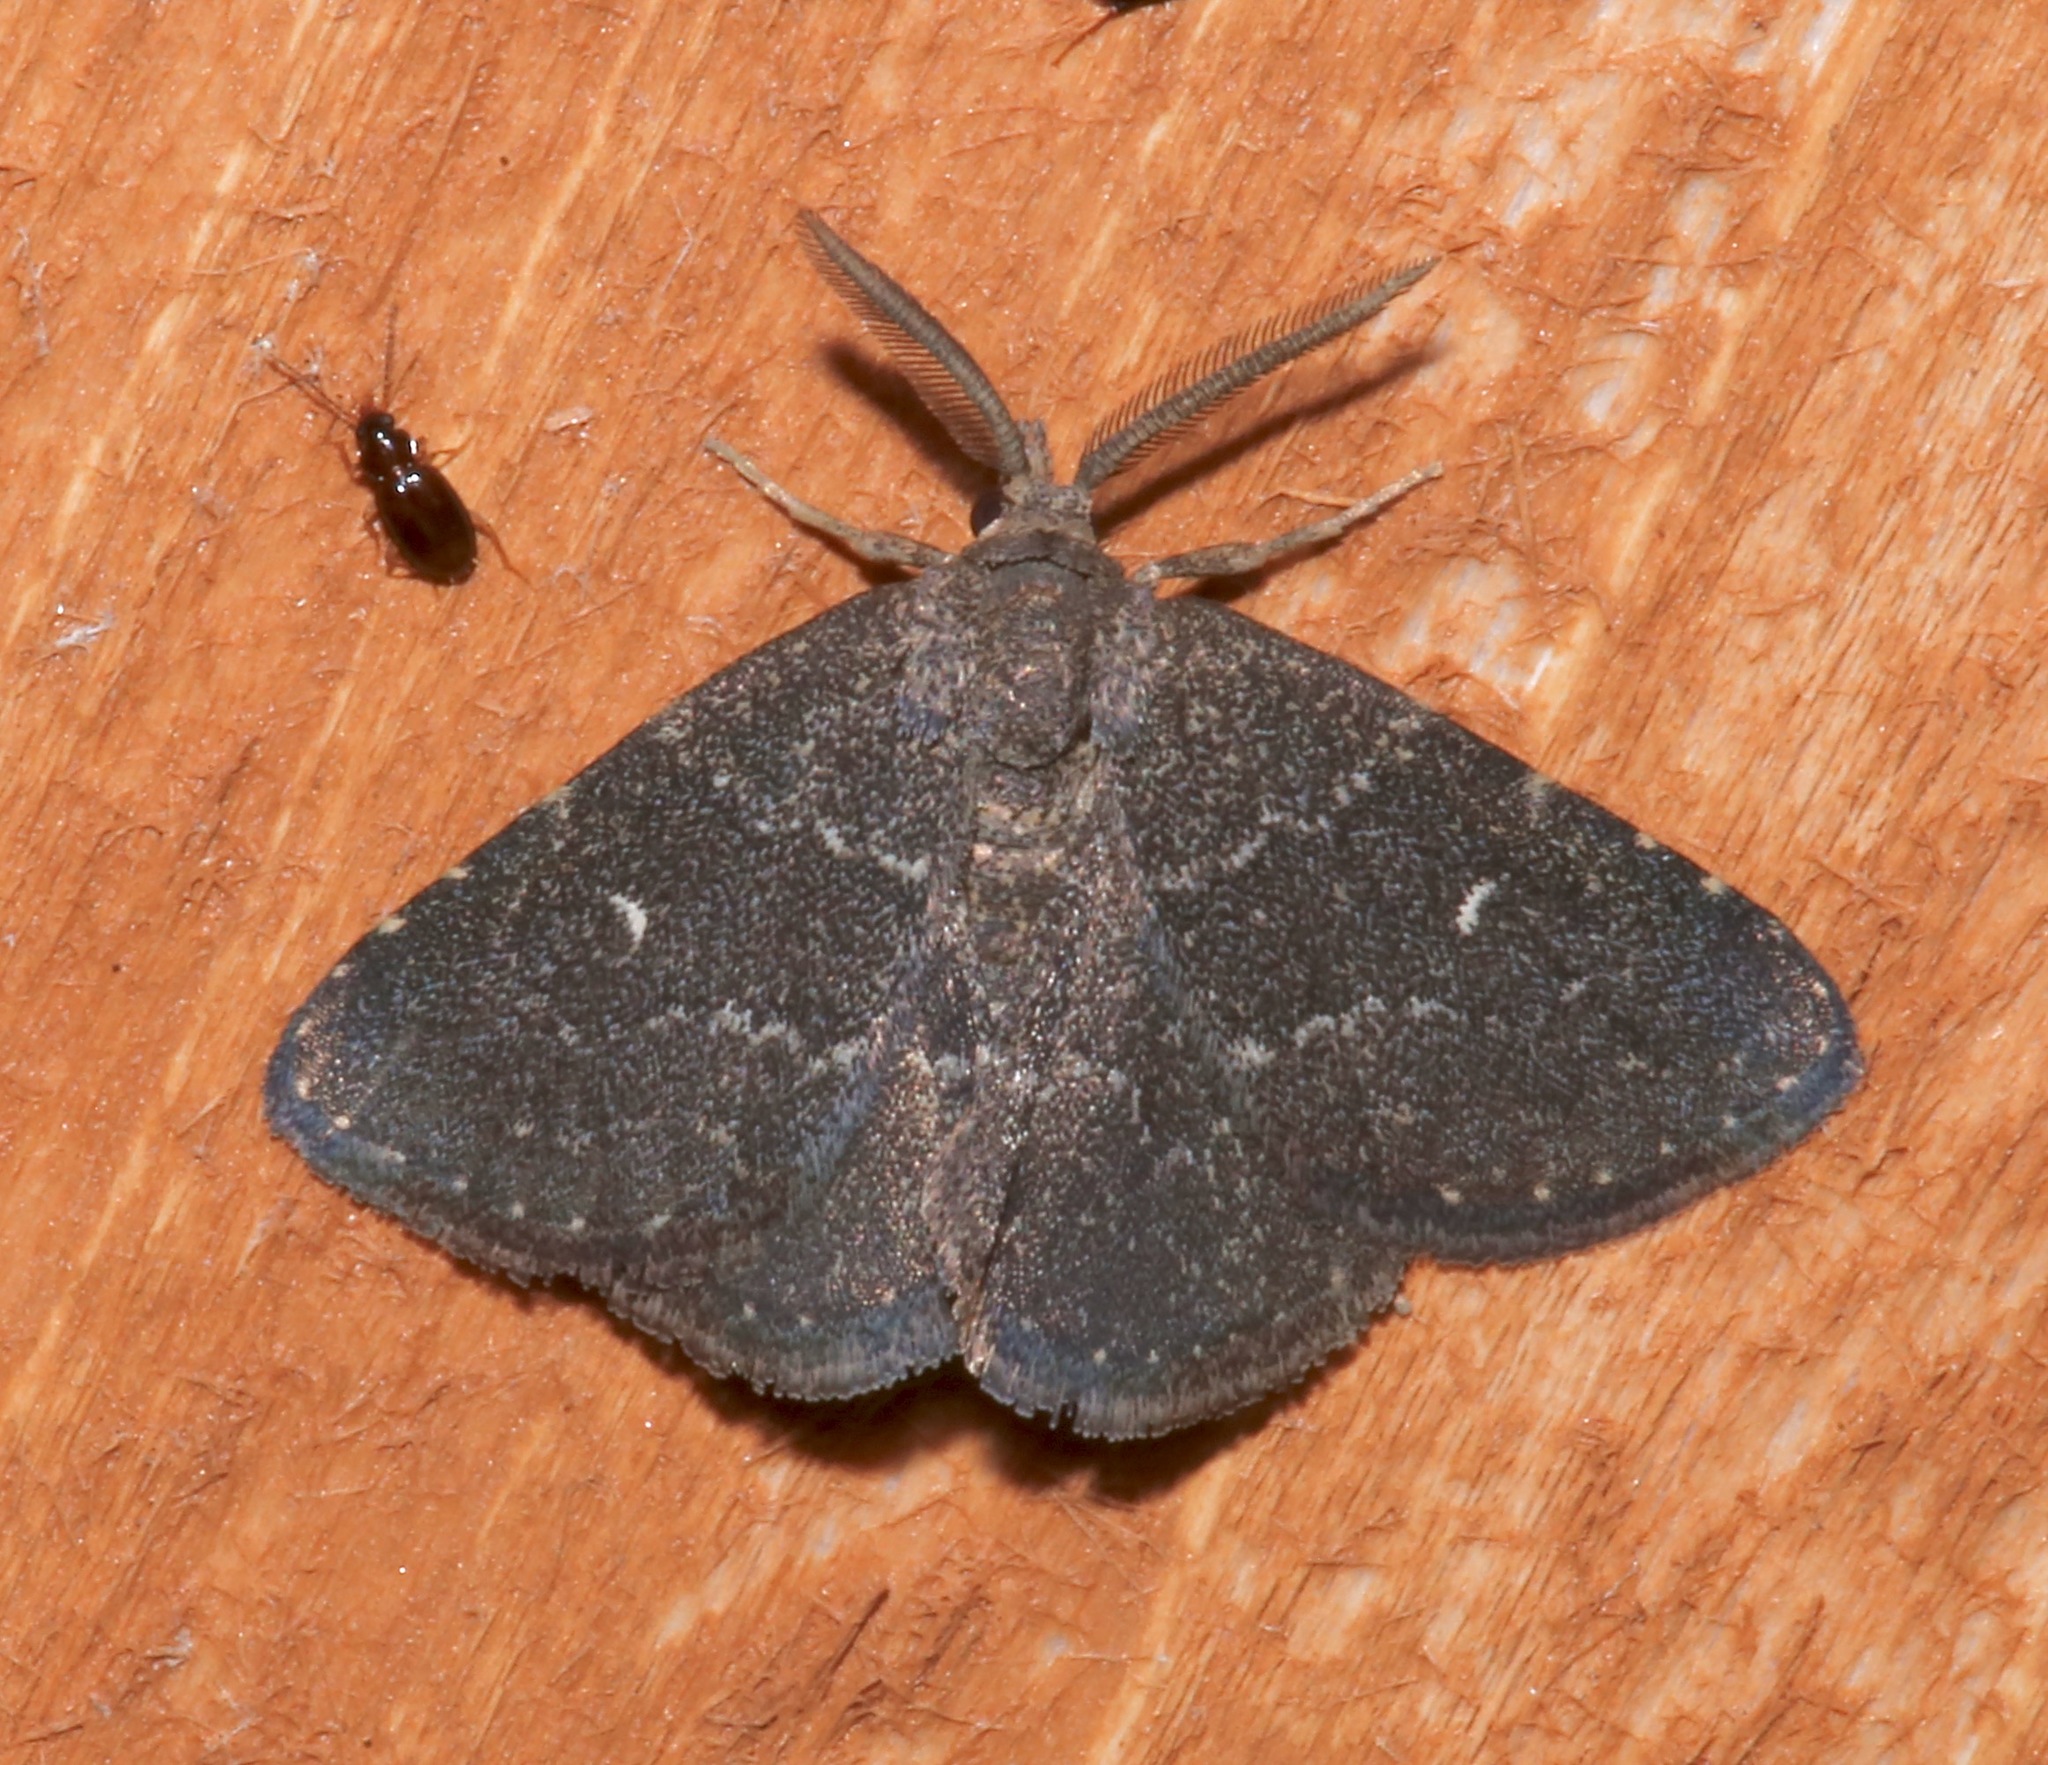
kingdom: Animalia
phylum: Arthropoda
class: Insecta
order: Lepidoptera
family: Erebidae
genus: Prosoparia
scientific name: Prosoparia floridana
